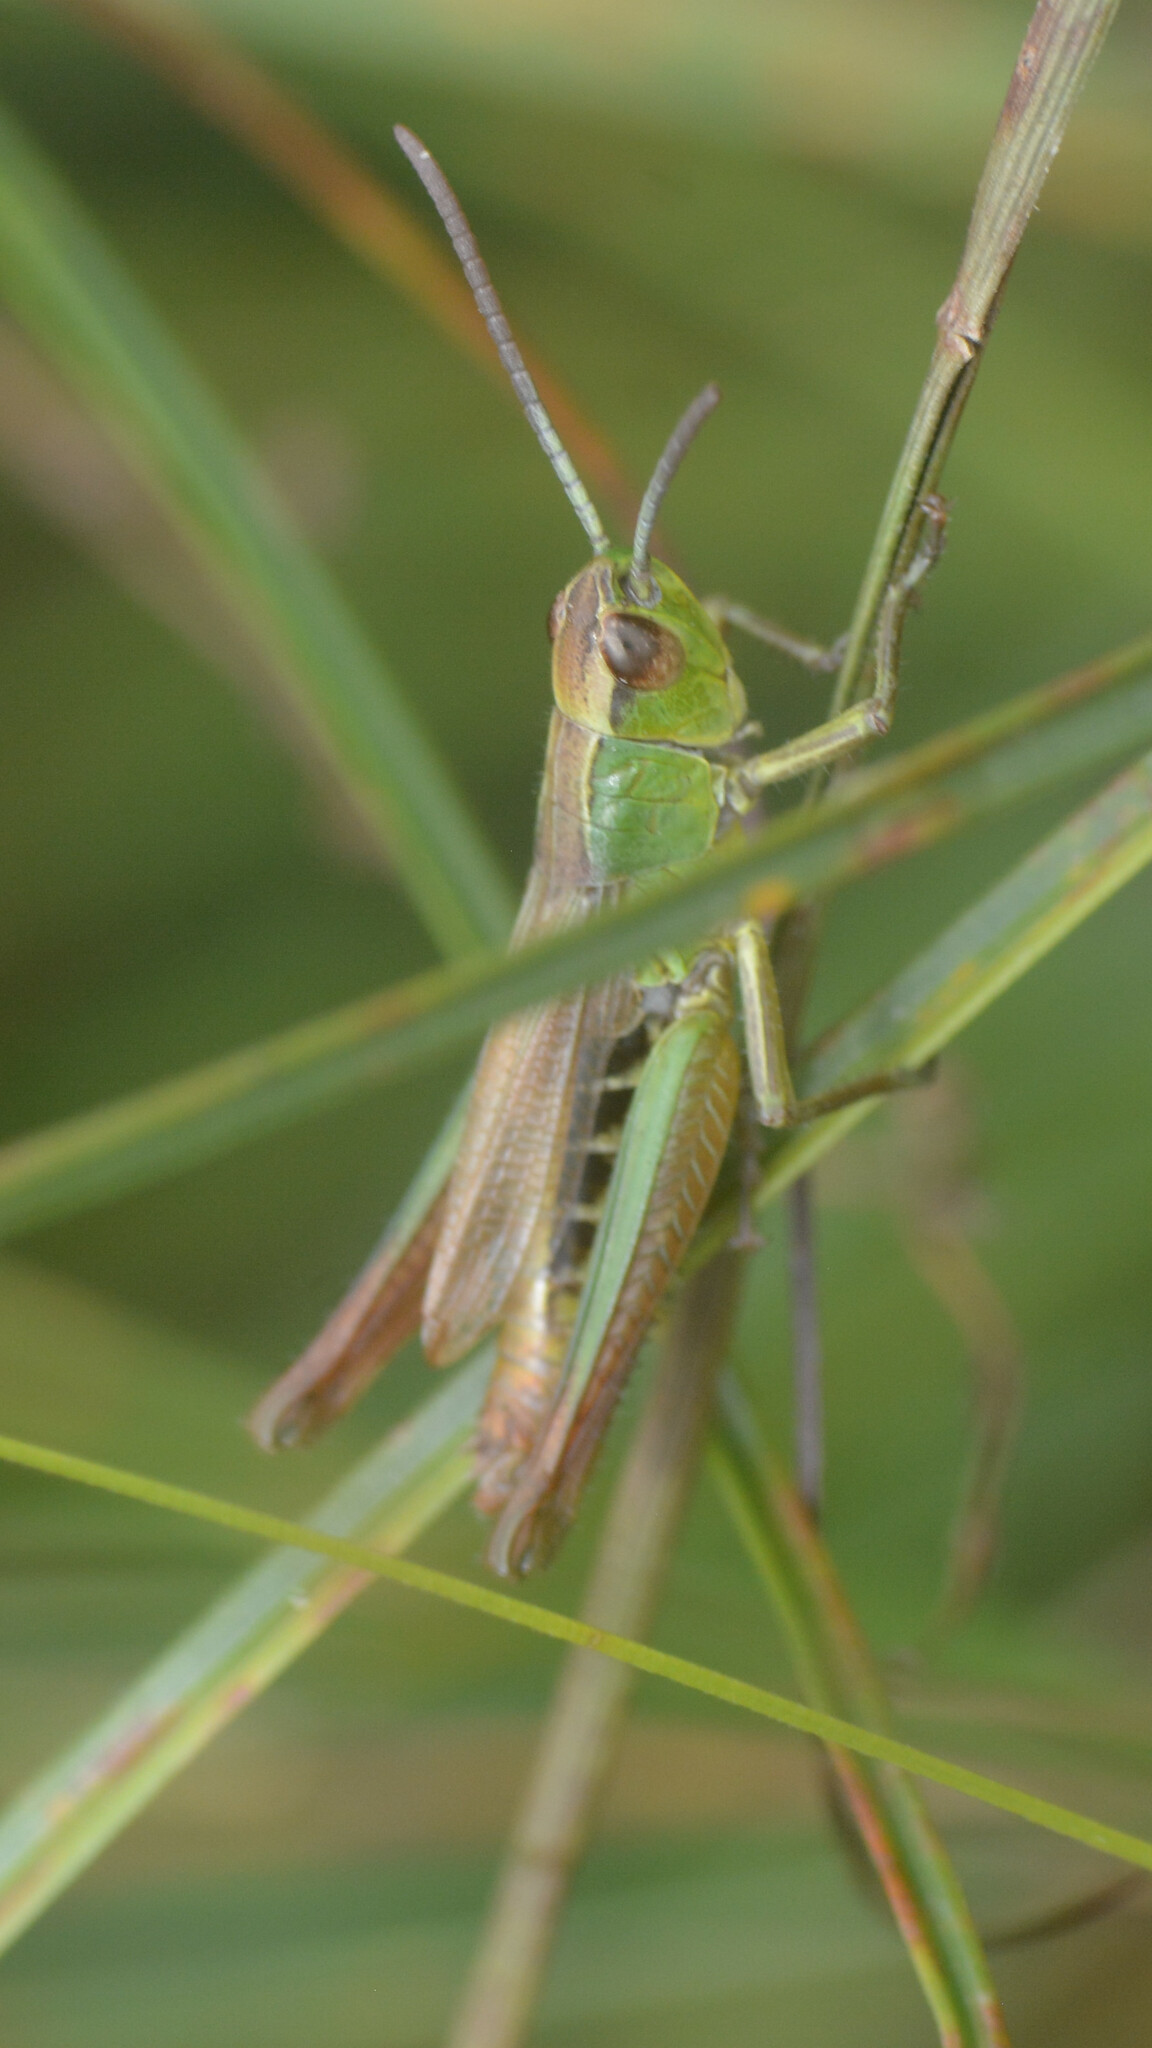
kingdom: Animalia
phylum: Arthropoda
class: Insecta
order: Orthoptera
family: Acrididae
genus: Pseudochorthippus
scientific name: Pseudochorthippus parallelus
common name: Meadow grasshopper
